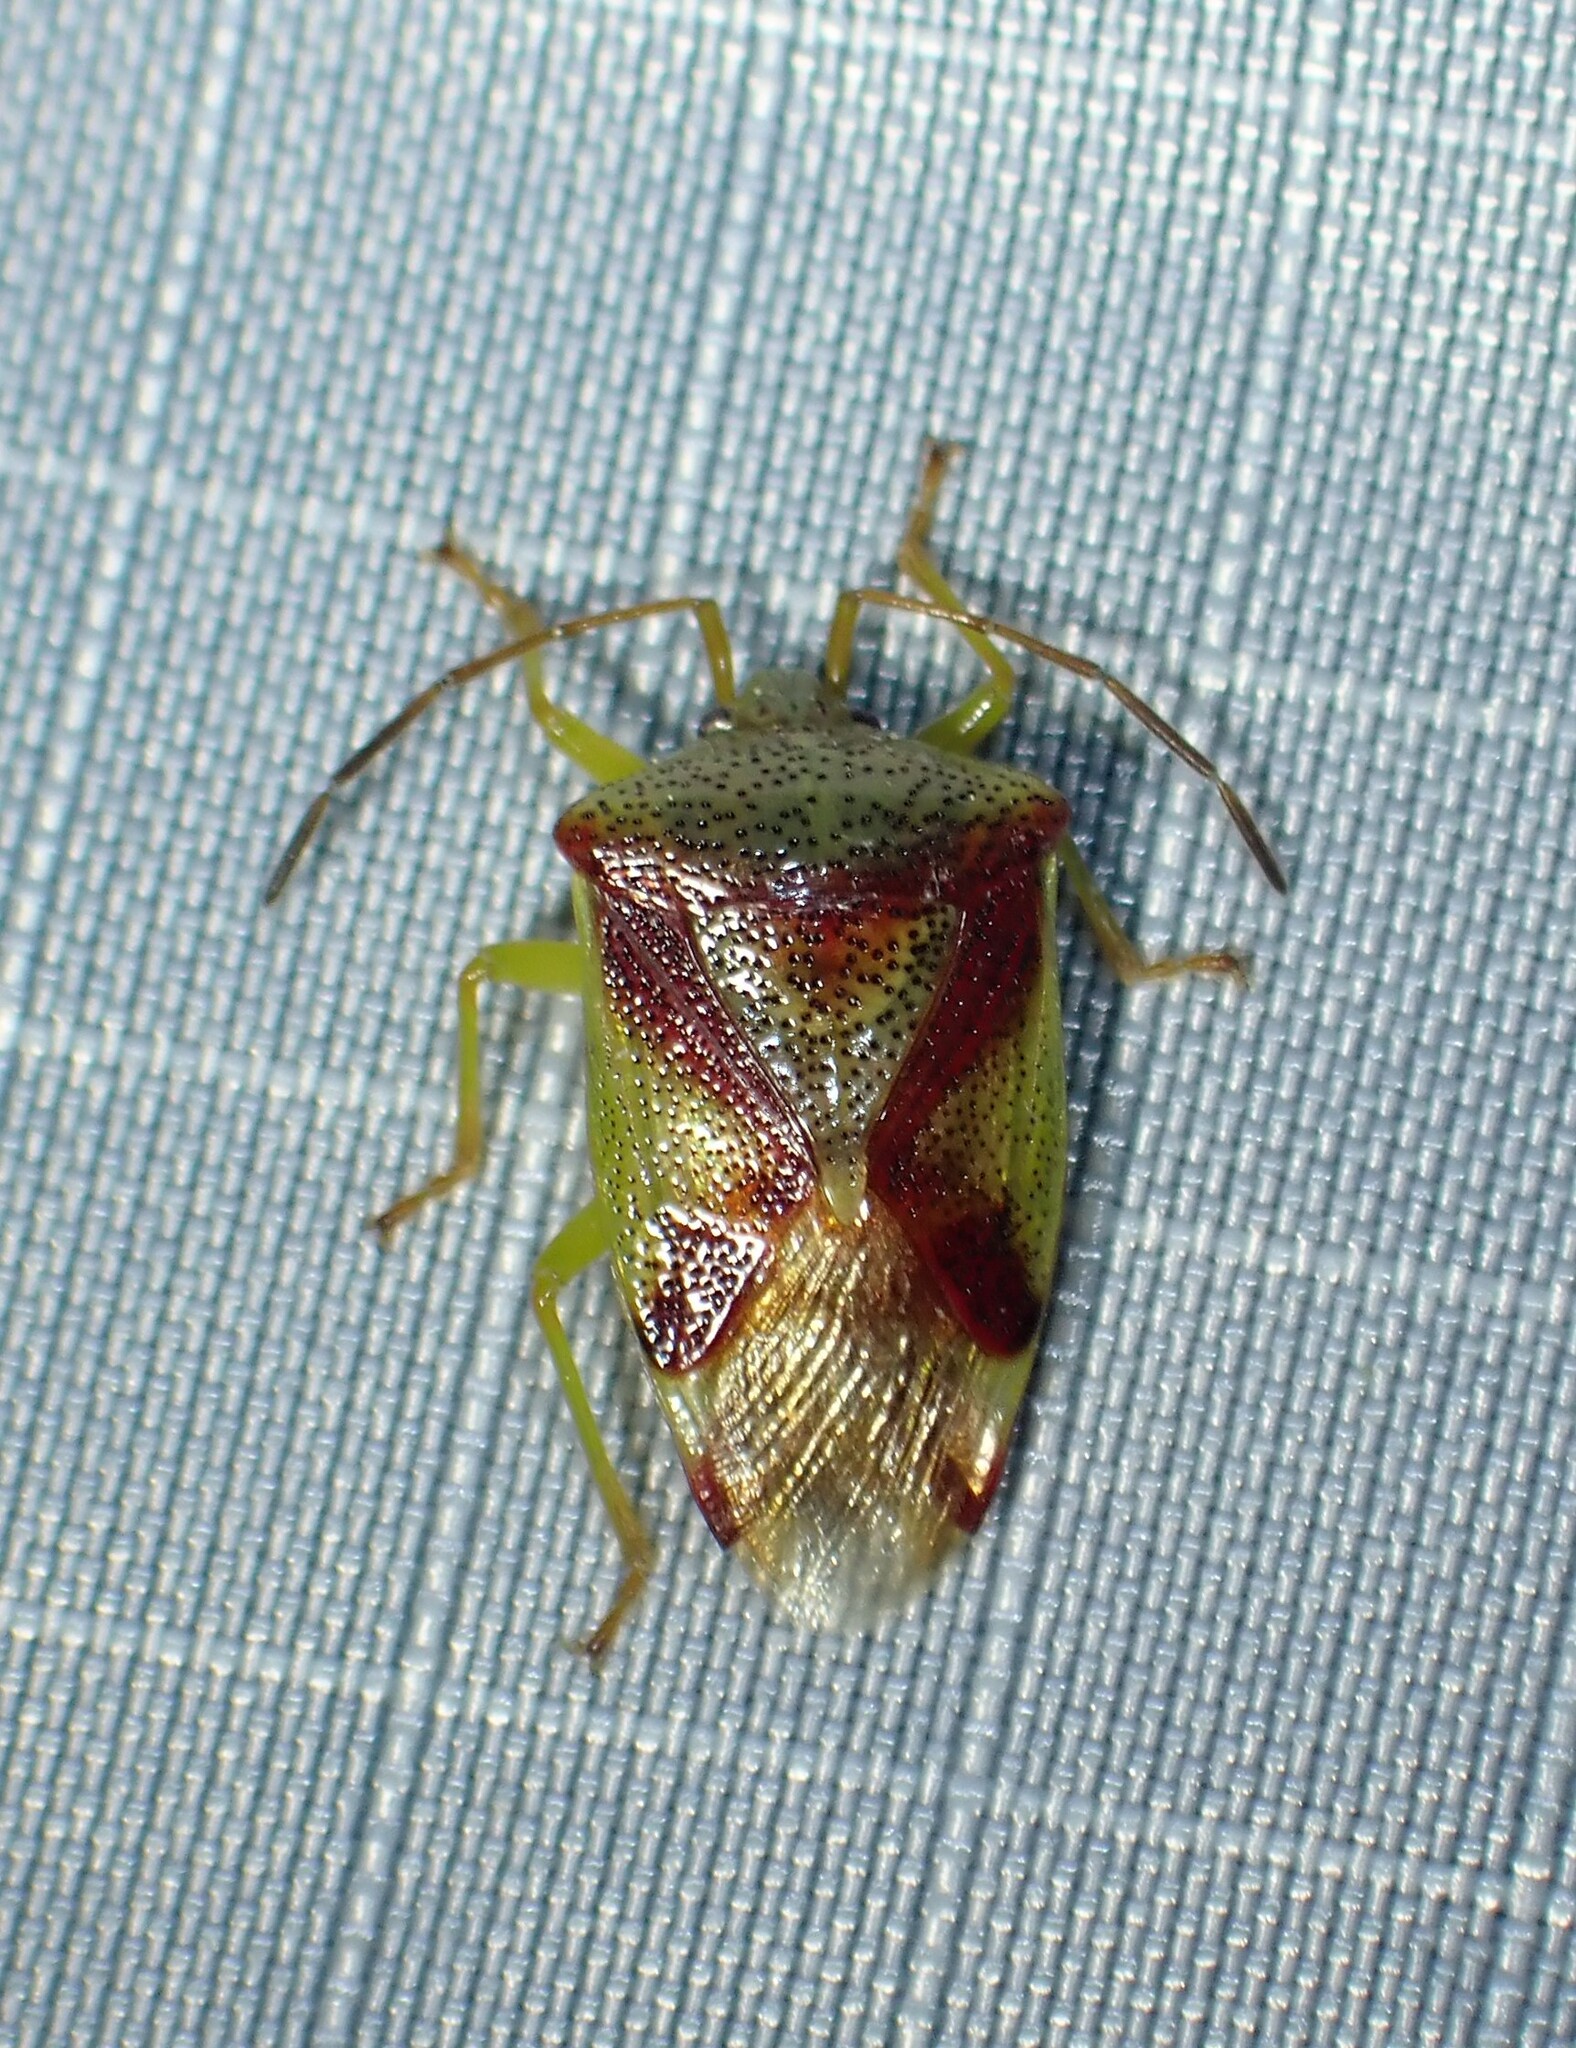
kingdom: Animalia
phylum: Arthropoda
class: Insecta
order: Hemiptera
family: Acanthosomatidae
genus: Elasmostethus
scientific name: Elasmostethus cruciatus
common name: Red-cross shield bug
